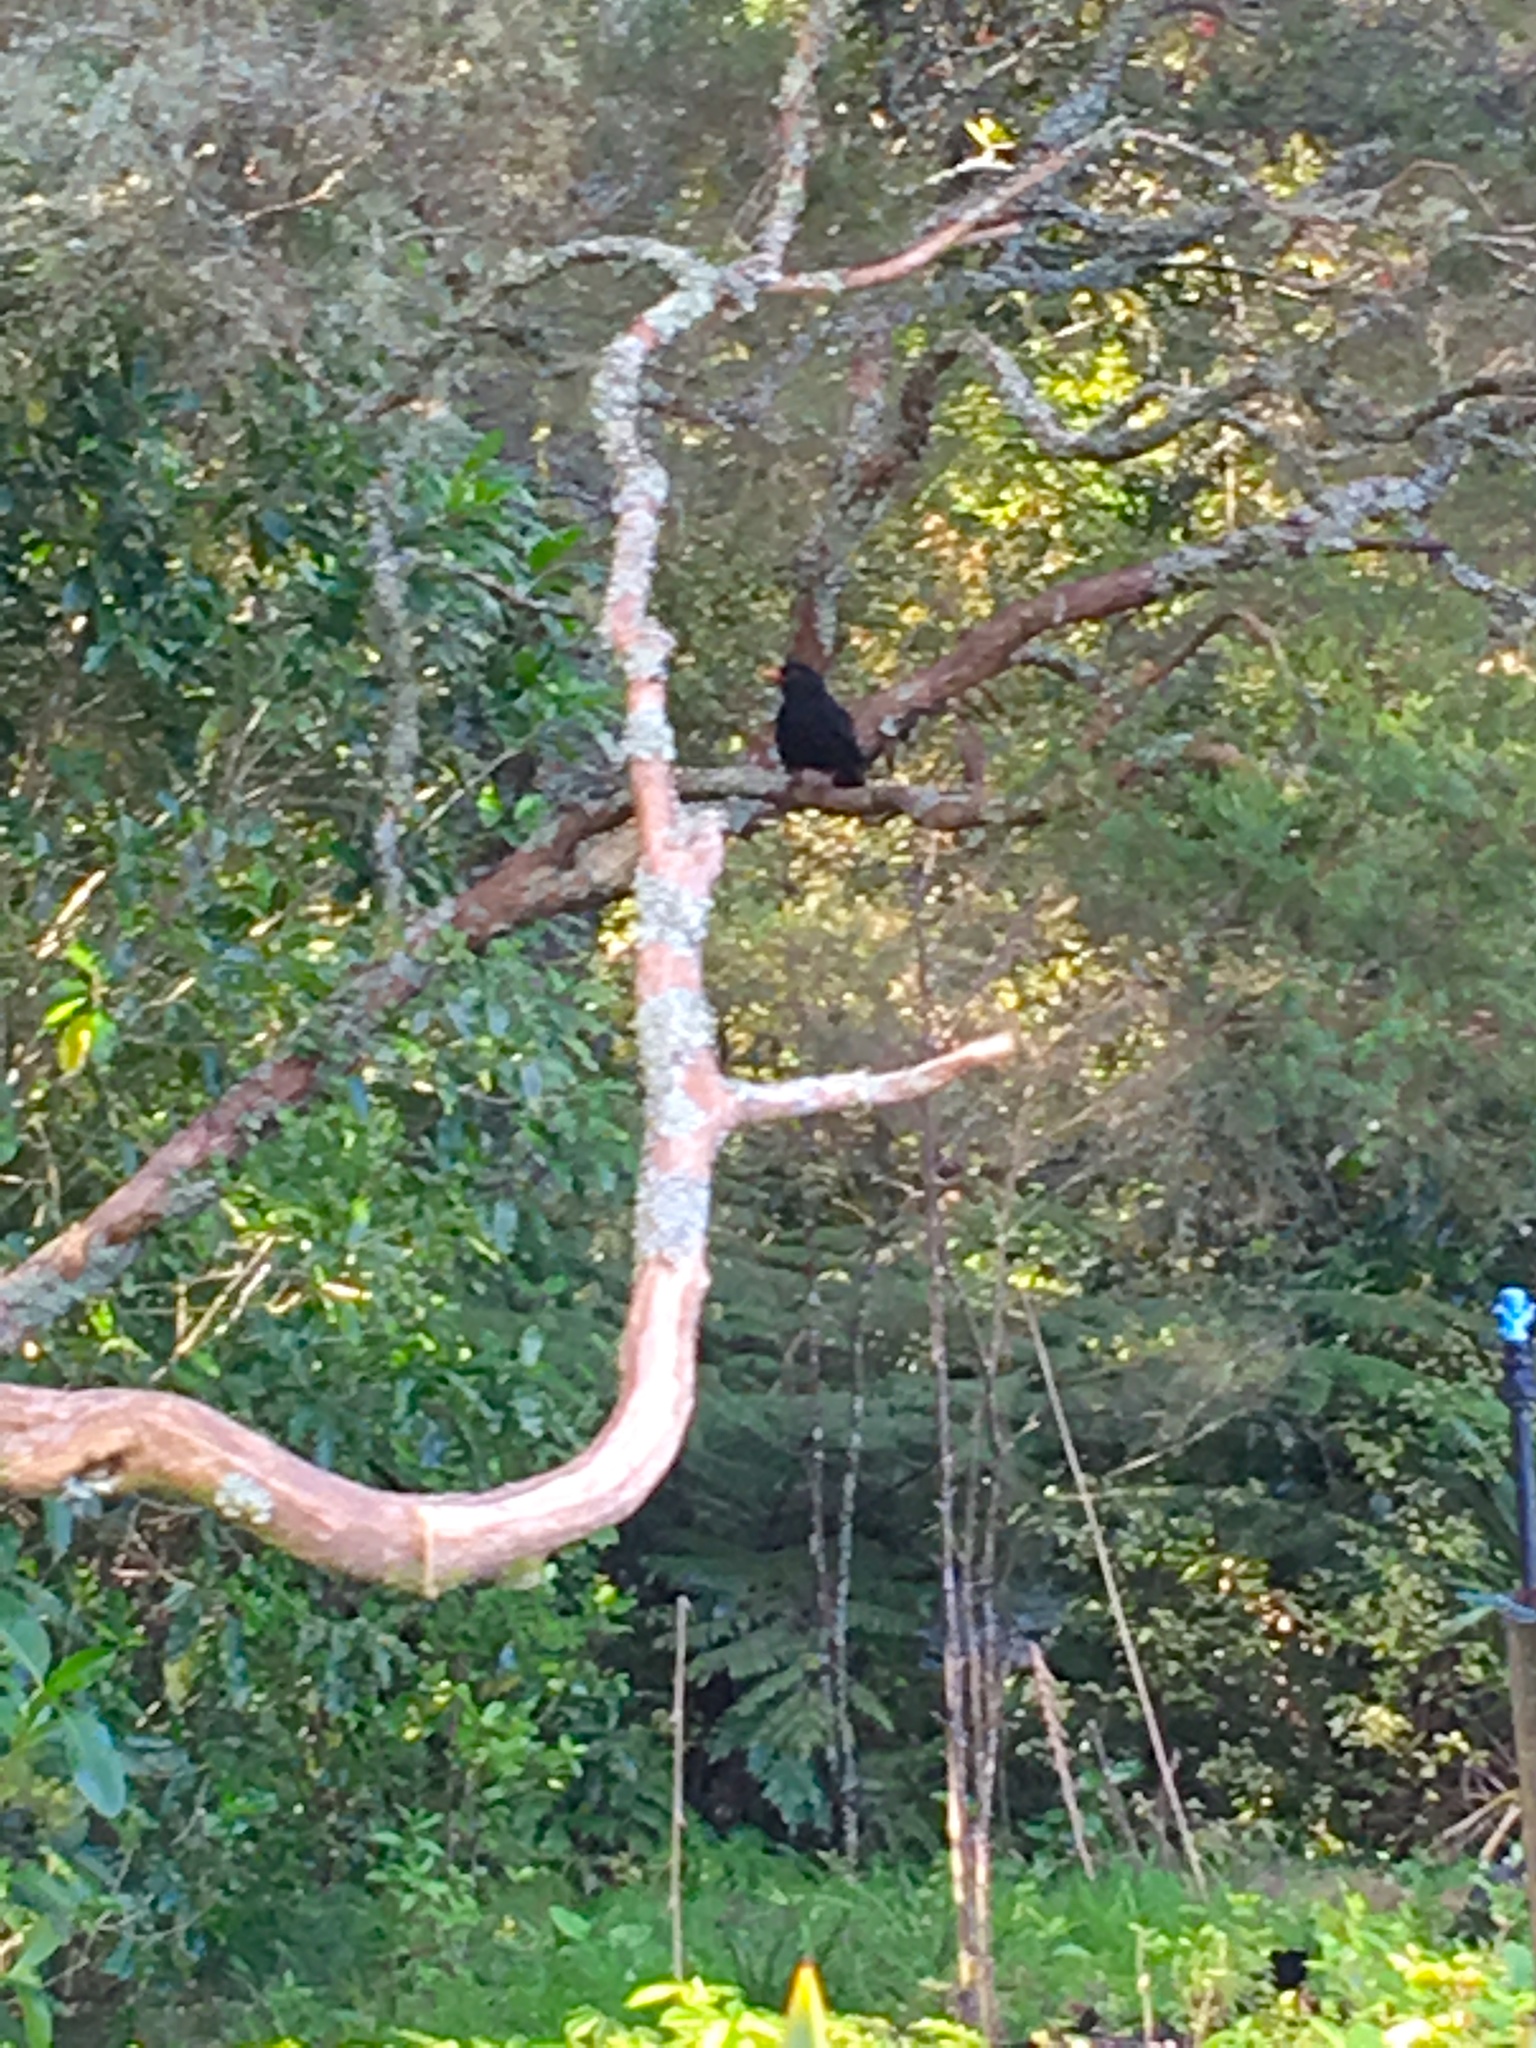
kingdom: Animalia
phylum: Chordata
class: Aves
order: Passeriformes
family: Turdidae
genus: Turdus
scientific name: Turdus merula
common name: Common blackbird
